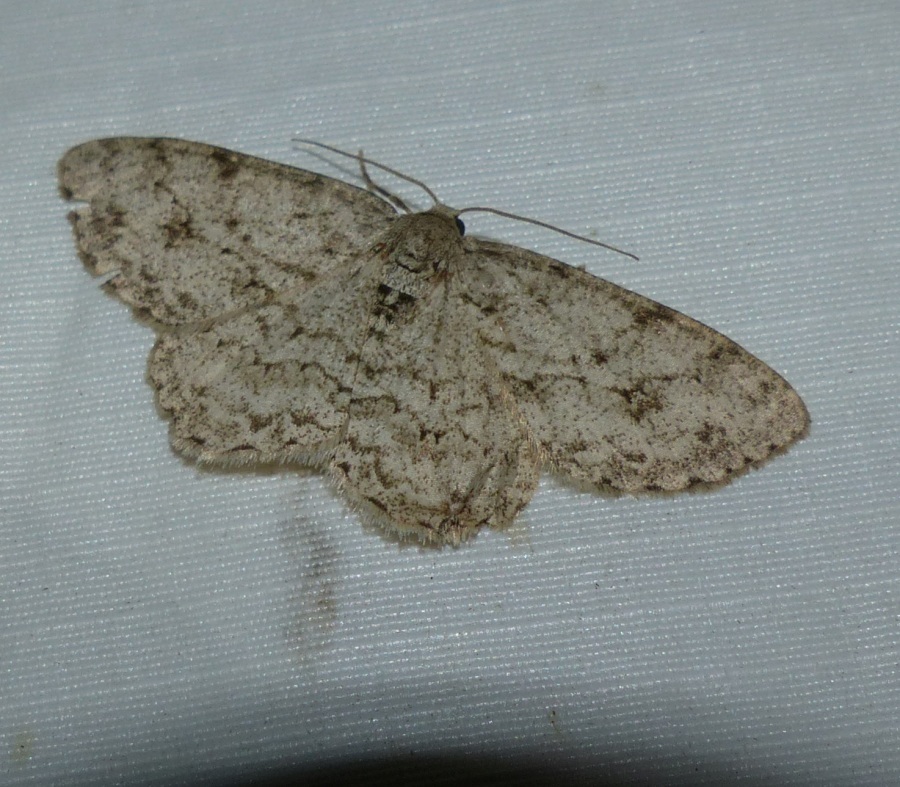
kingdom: Animalia
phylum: Arthropoda
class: Insecta
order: Lepidoptera
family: Geometridae
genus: Ectropis
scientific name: Ectropis crepuscularia
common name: Engrailed
